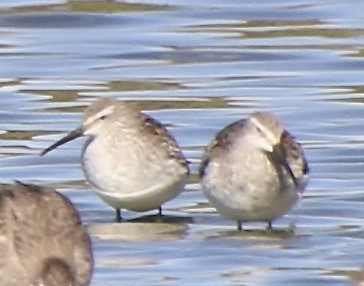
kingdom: Animalia
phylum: Chordata
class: Aves
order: Charadriiformes
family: Scolopacidae
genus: Calidris
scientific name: Calidris himantopus
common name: Stilt sandpiper
